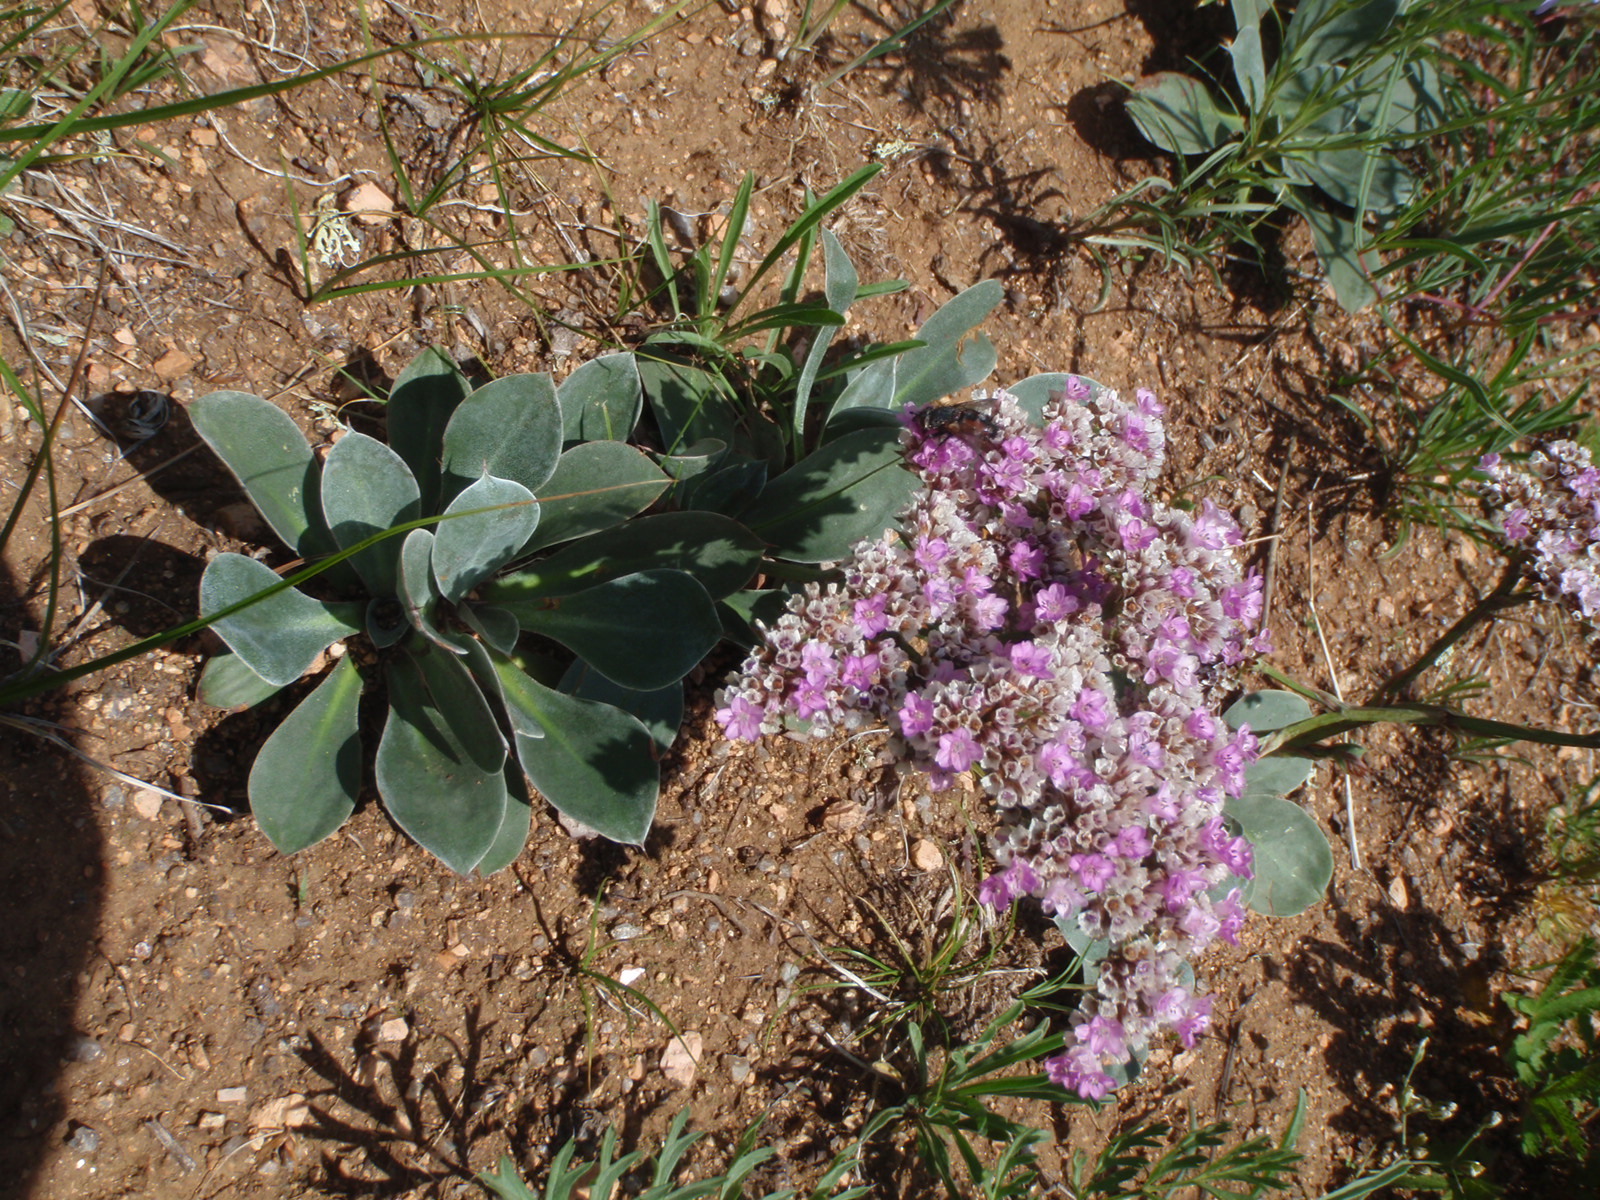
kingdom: Plantae
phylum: Tracheophyta
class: Magnoliopsida
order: Caryophyllales
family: Plumbaginaceae
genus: Goniolimon
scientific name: Goniolimon speciosum
